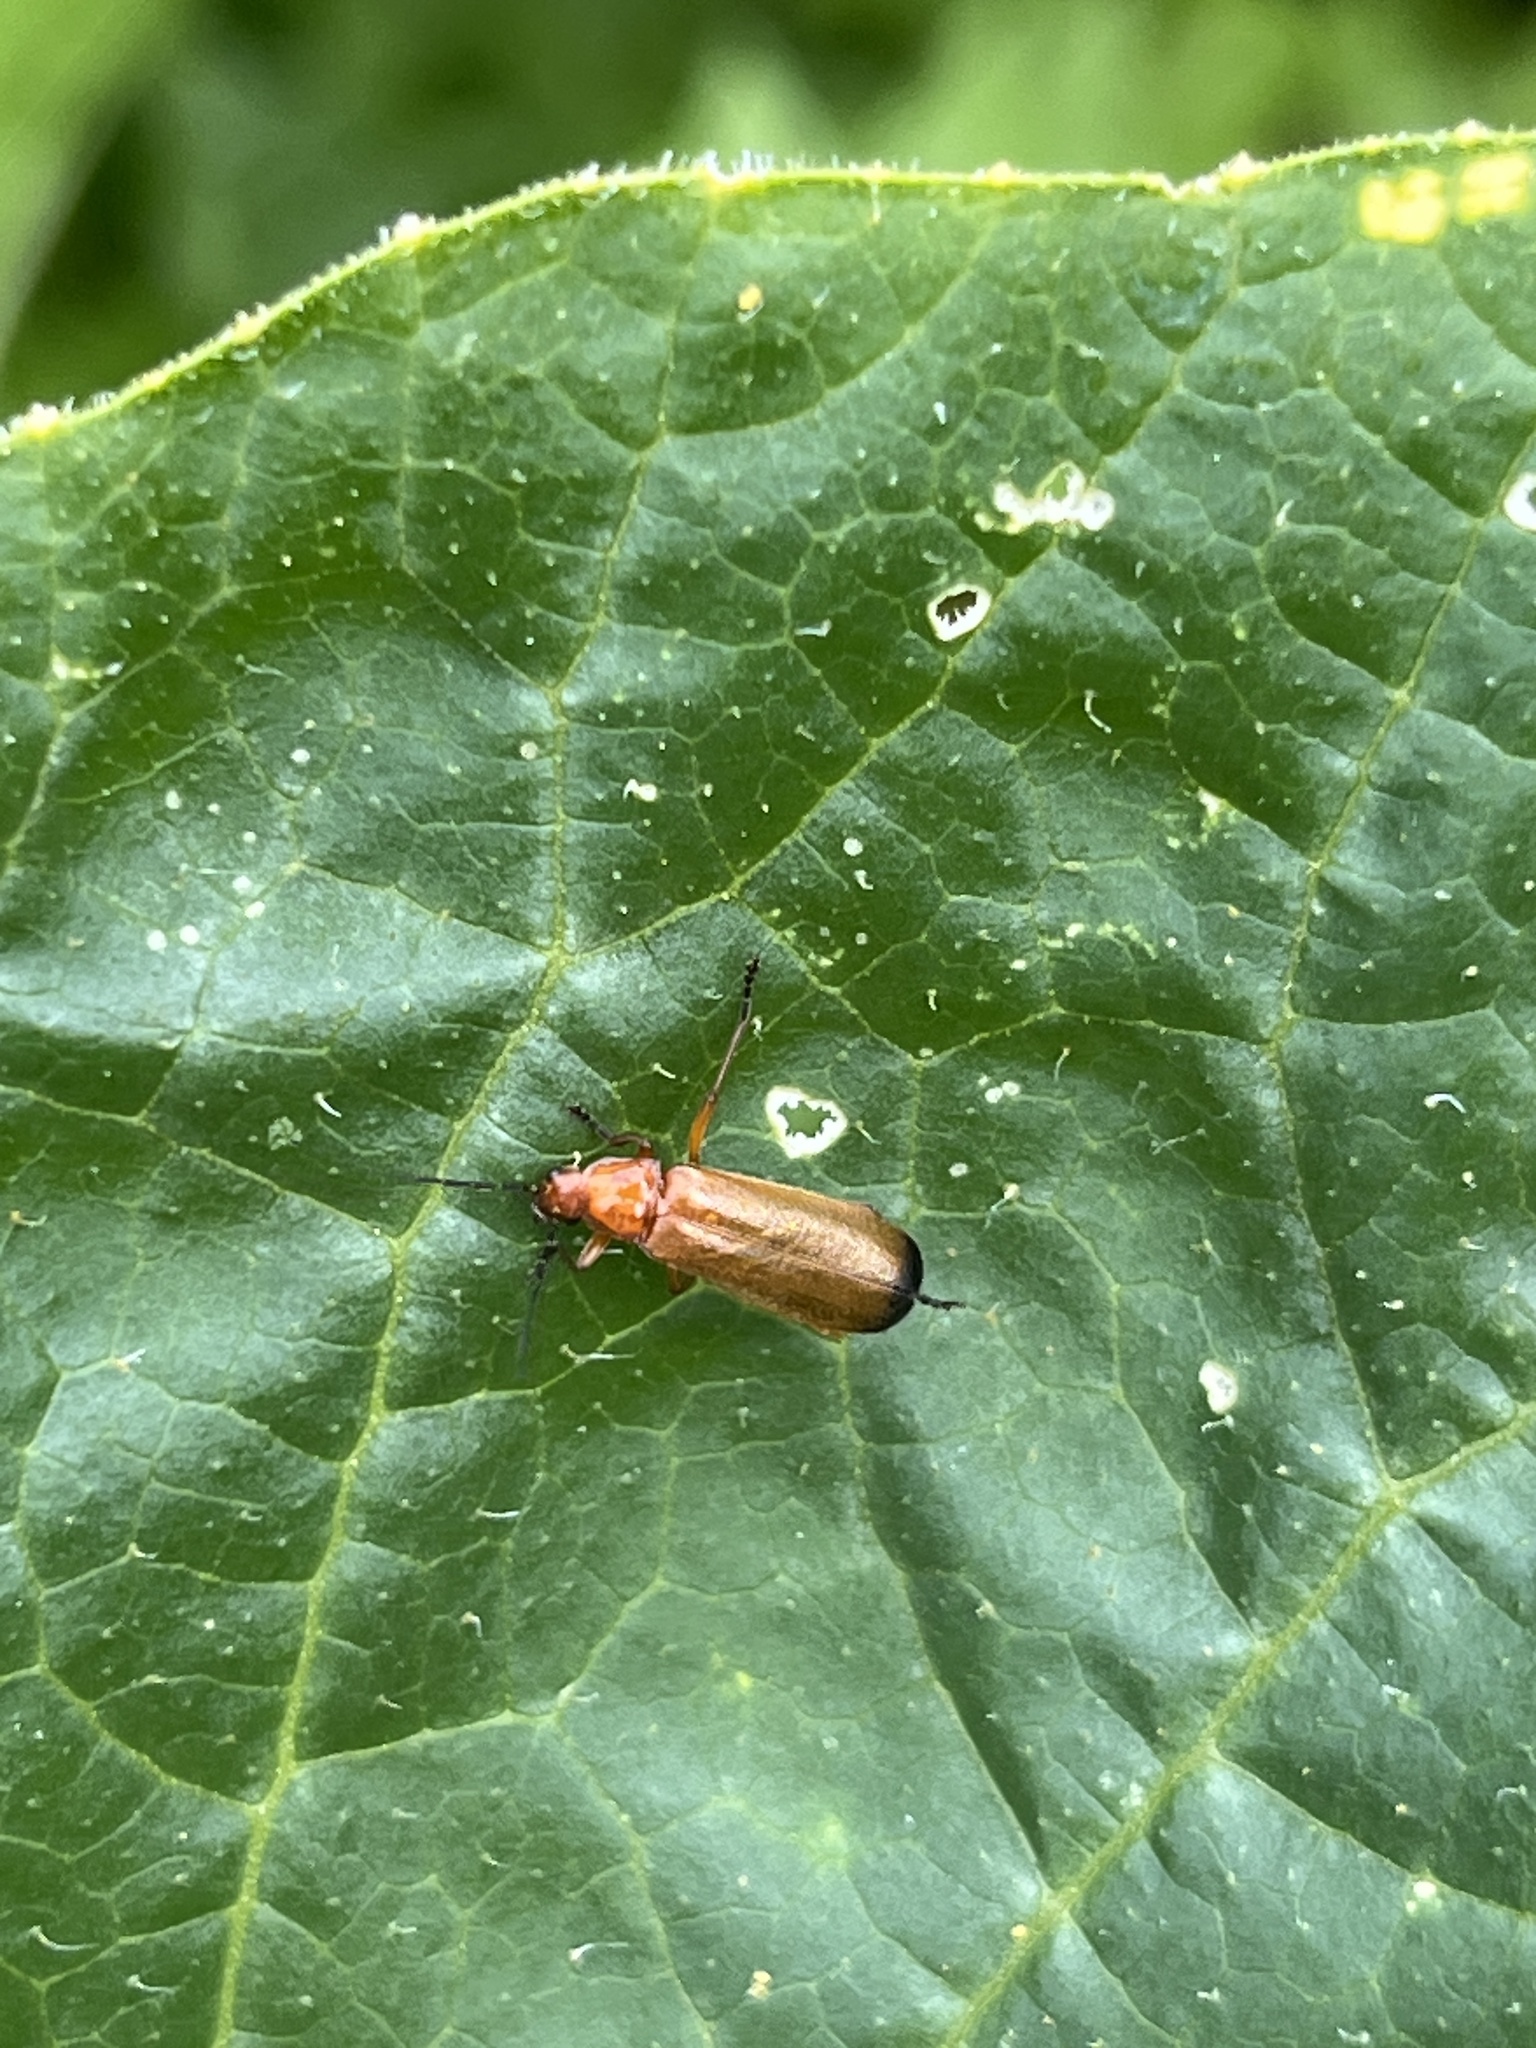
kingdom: Animalia
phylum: Arthropoda
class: Insecta
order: Coleoptera
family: Cantharidae
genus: Rhagonycha
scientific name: Rhagonycha fulva
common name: Common red soldier beetle
